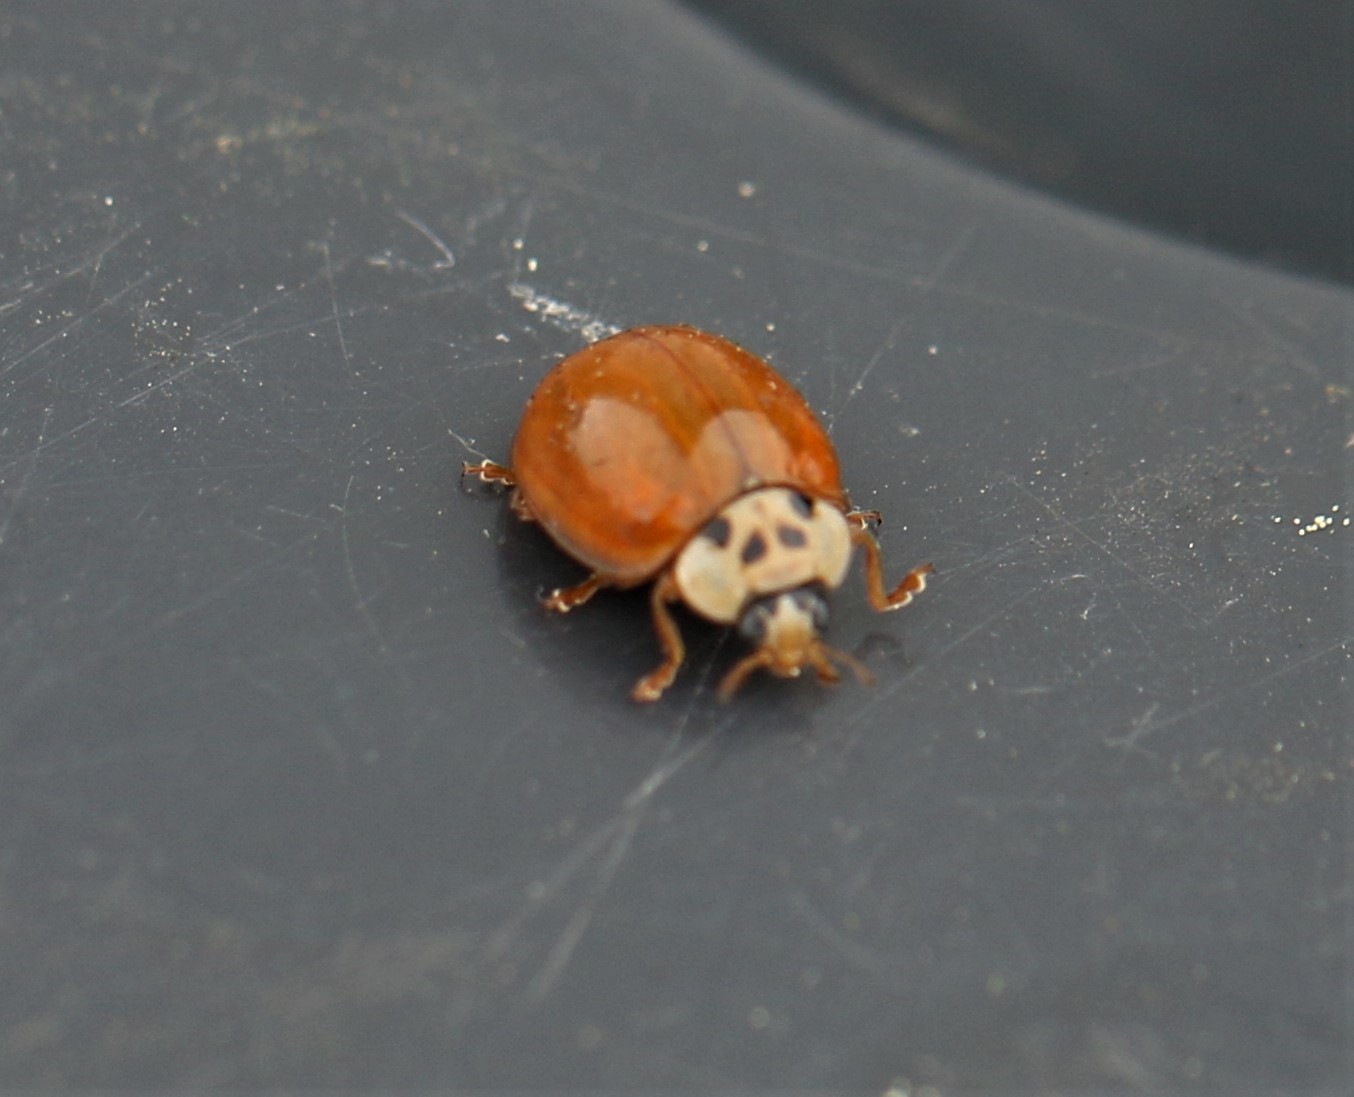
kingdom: Animalia
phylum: Arthropoda
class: Insecta
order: Coleoptera
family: Coccinellidae
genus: Harmonia
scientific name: Harmonia axyridis
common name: Harlequin ladybird
